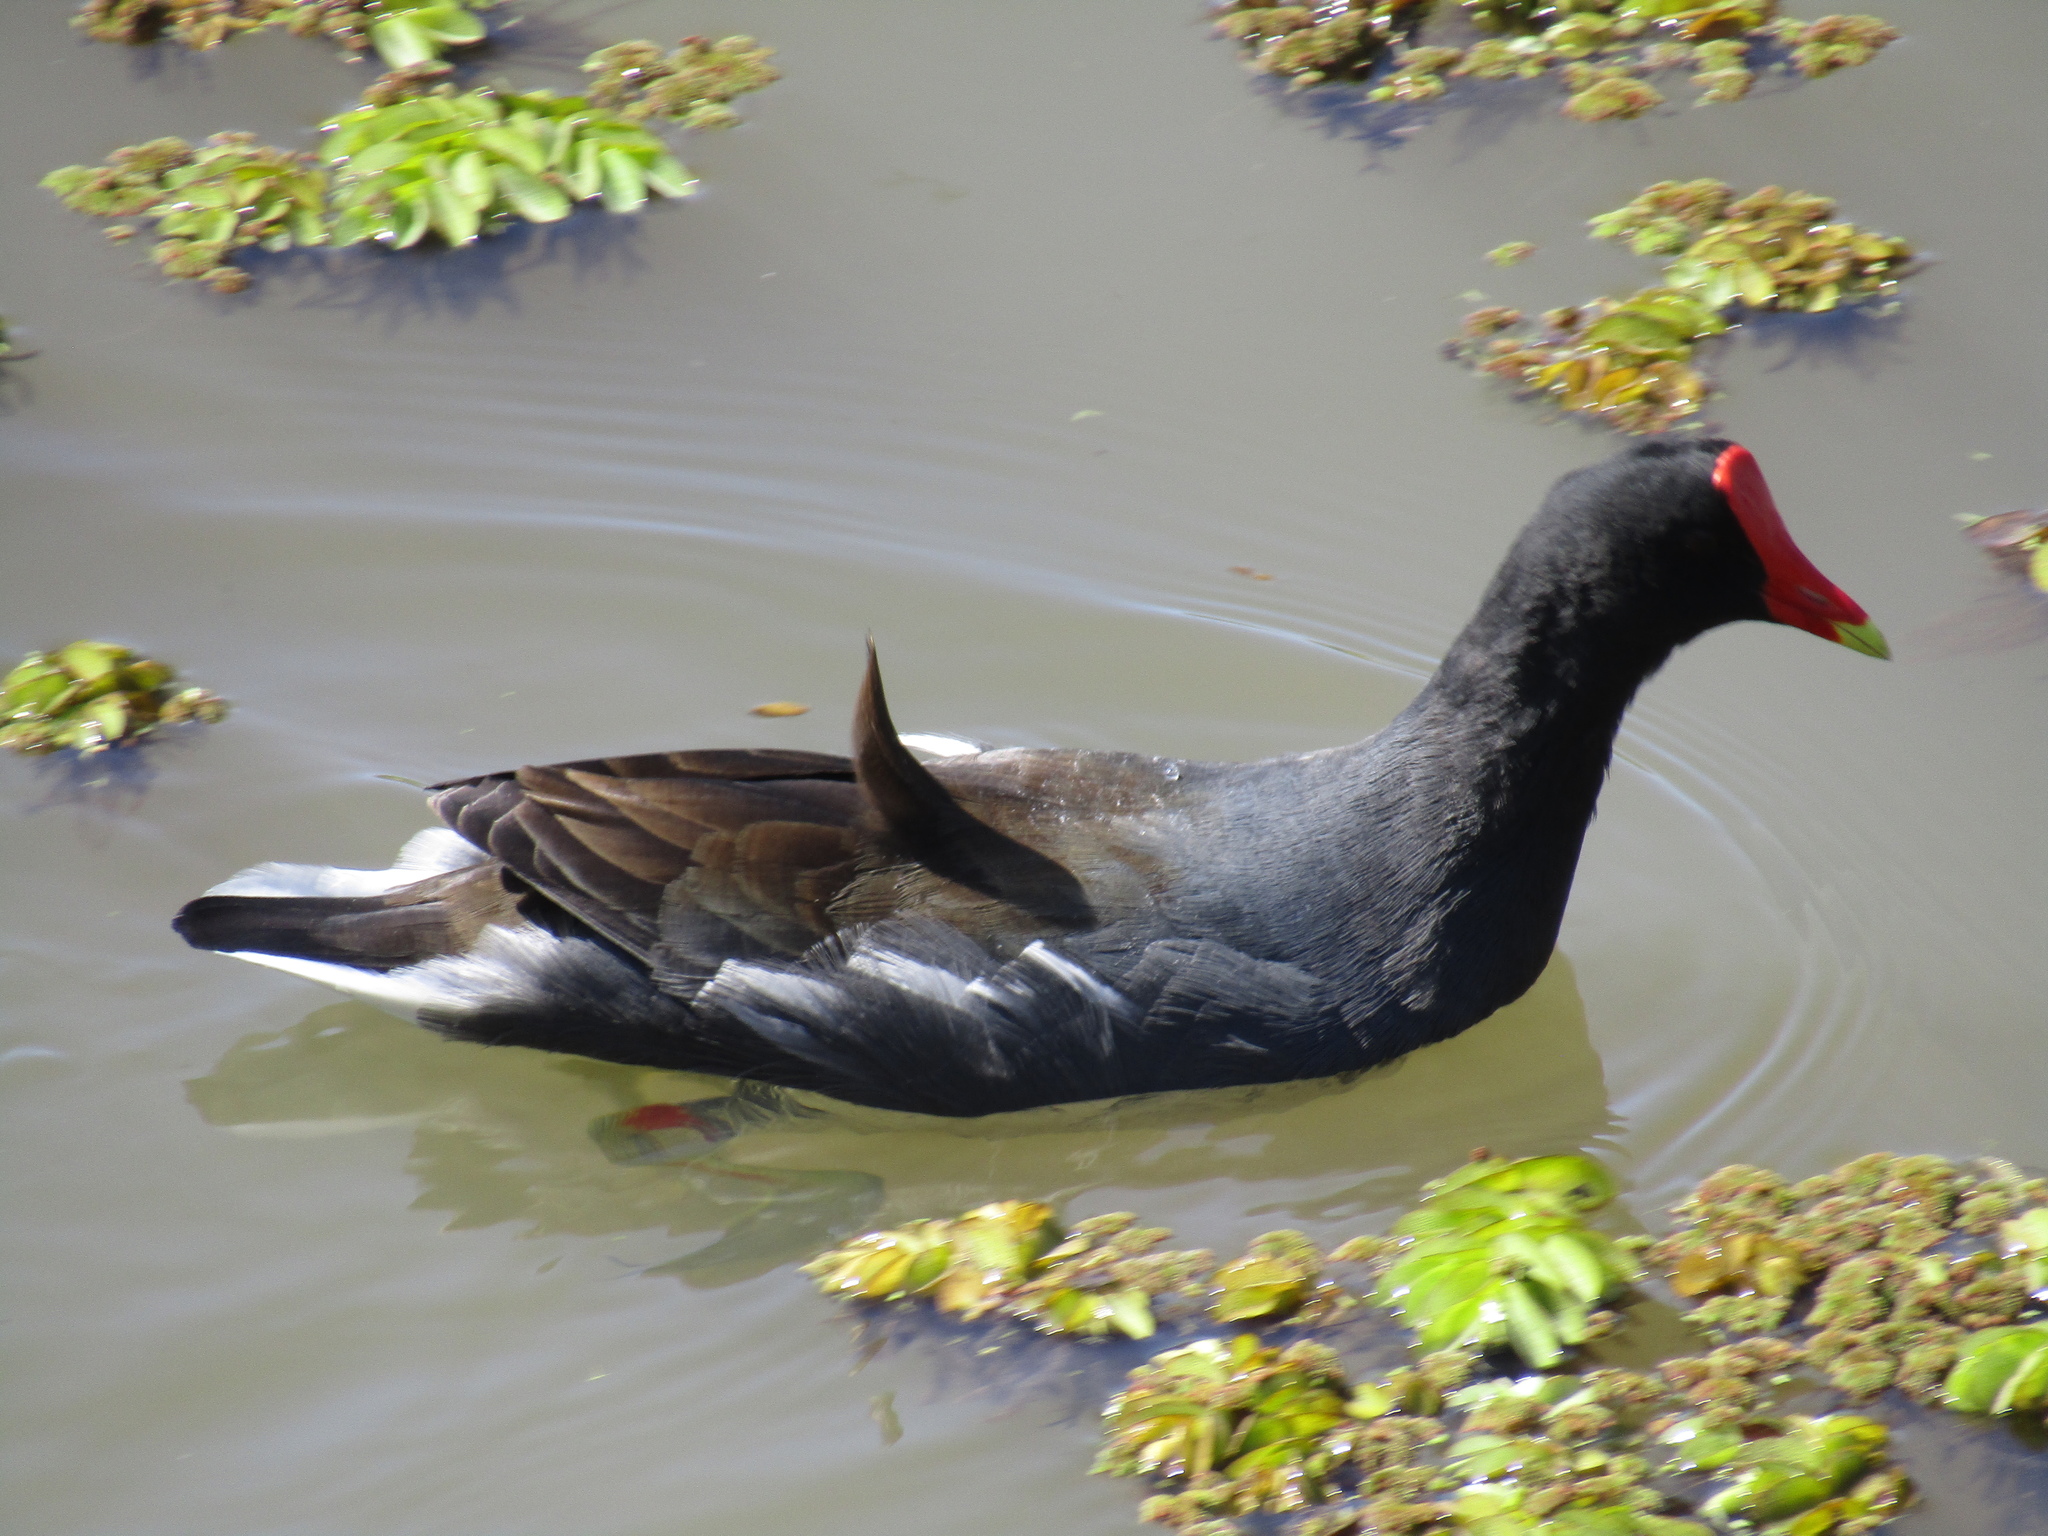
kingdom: Animalia
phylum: Chordata
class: Aves
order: Gruiformes
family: Rallidae
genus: Gallinula
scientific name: Gallinula chloropus
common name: Common moorhen
